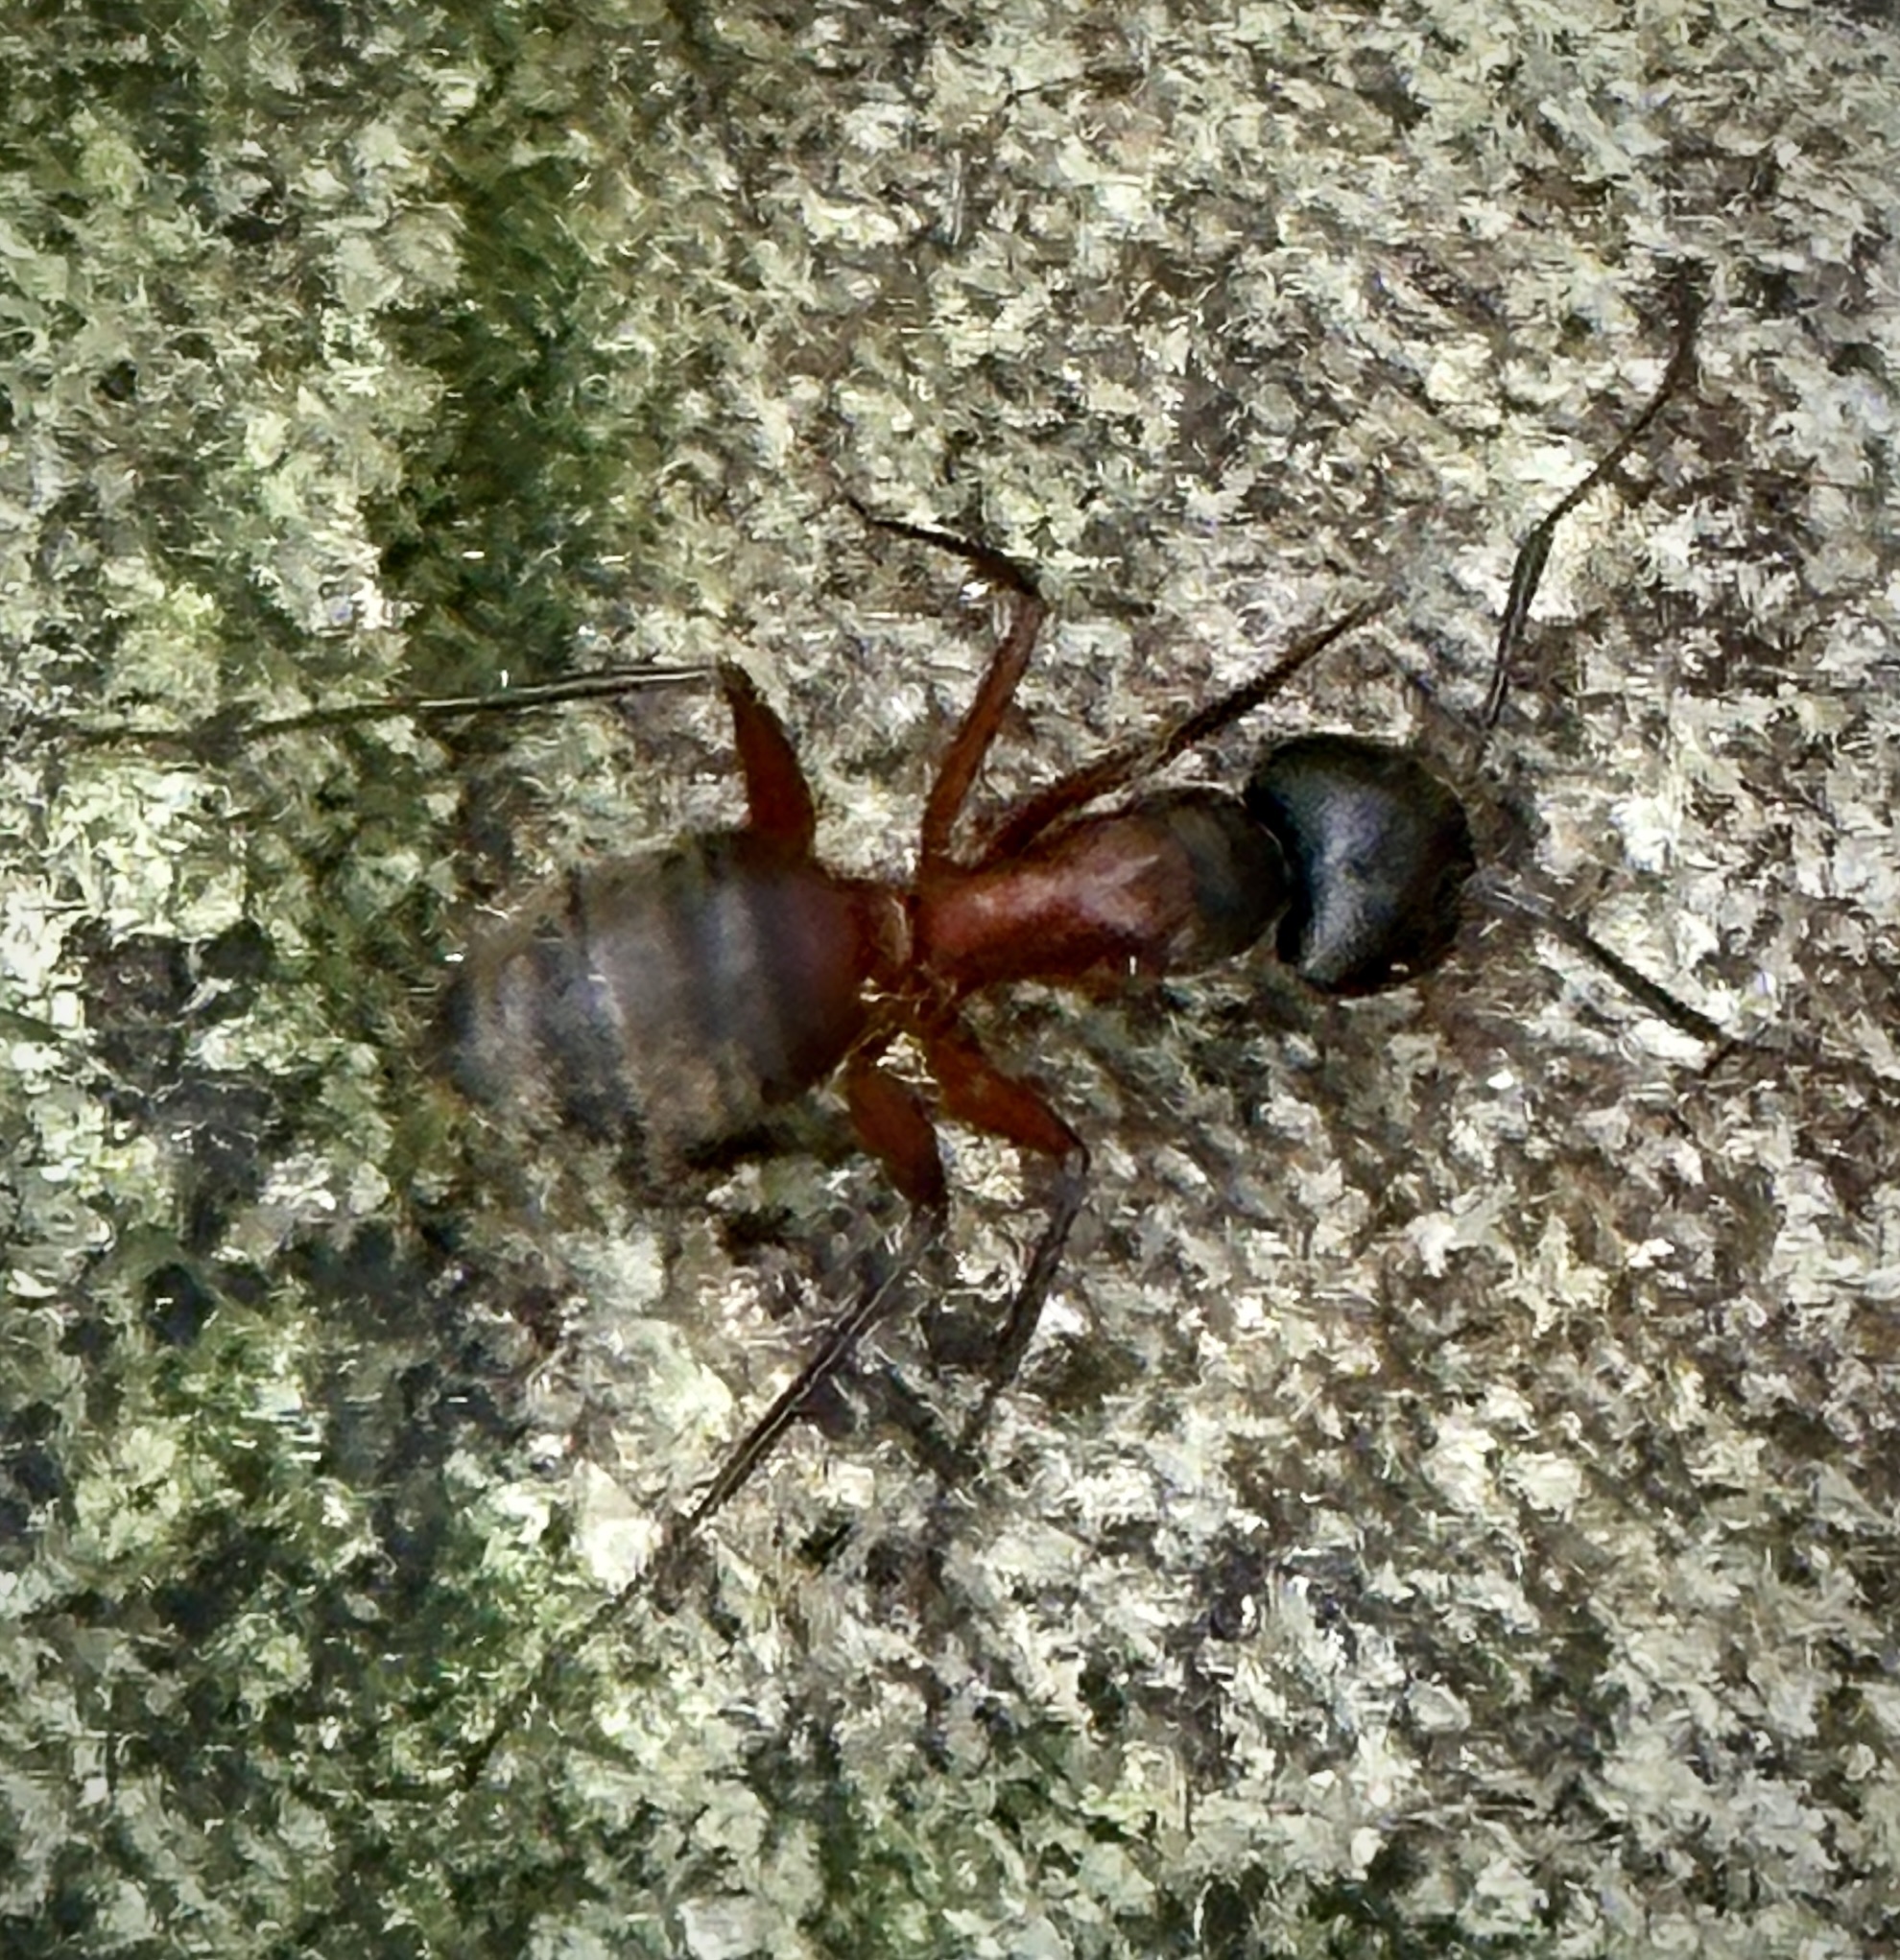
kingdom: Animalia
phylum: Arthropoda
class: Insecta
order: Hymenoptera
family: Formicidae
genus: Camponotus
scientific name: Camponotus chromaiodes
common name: Red carpenter ant
